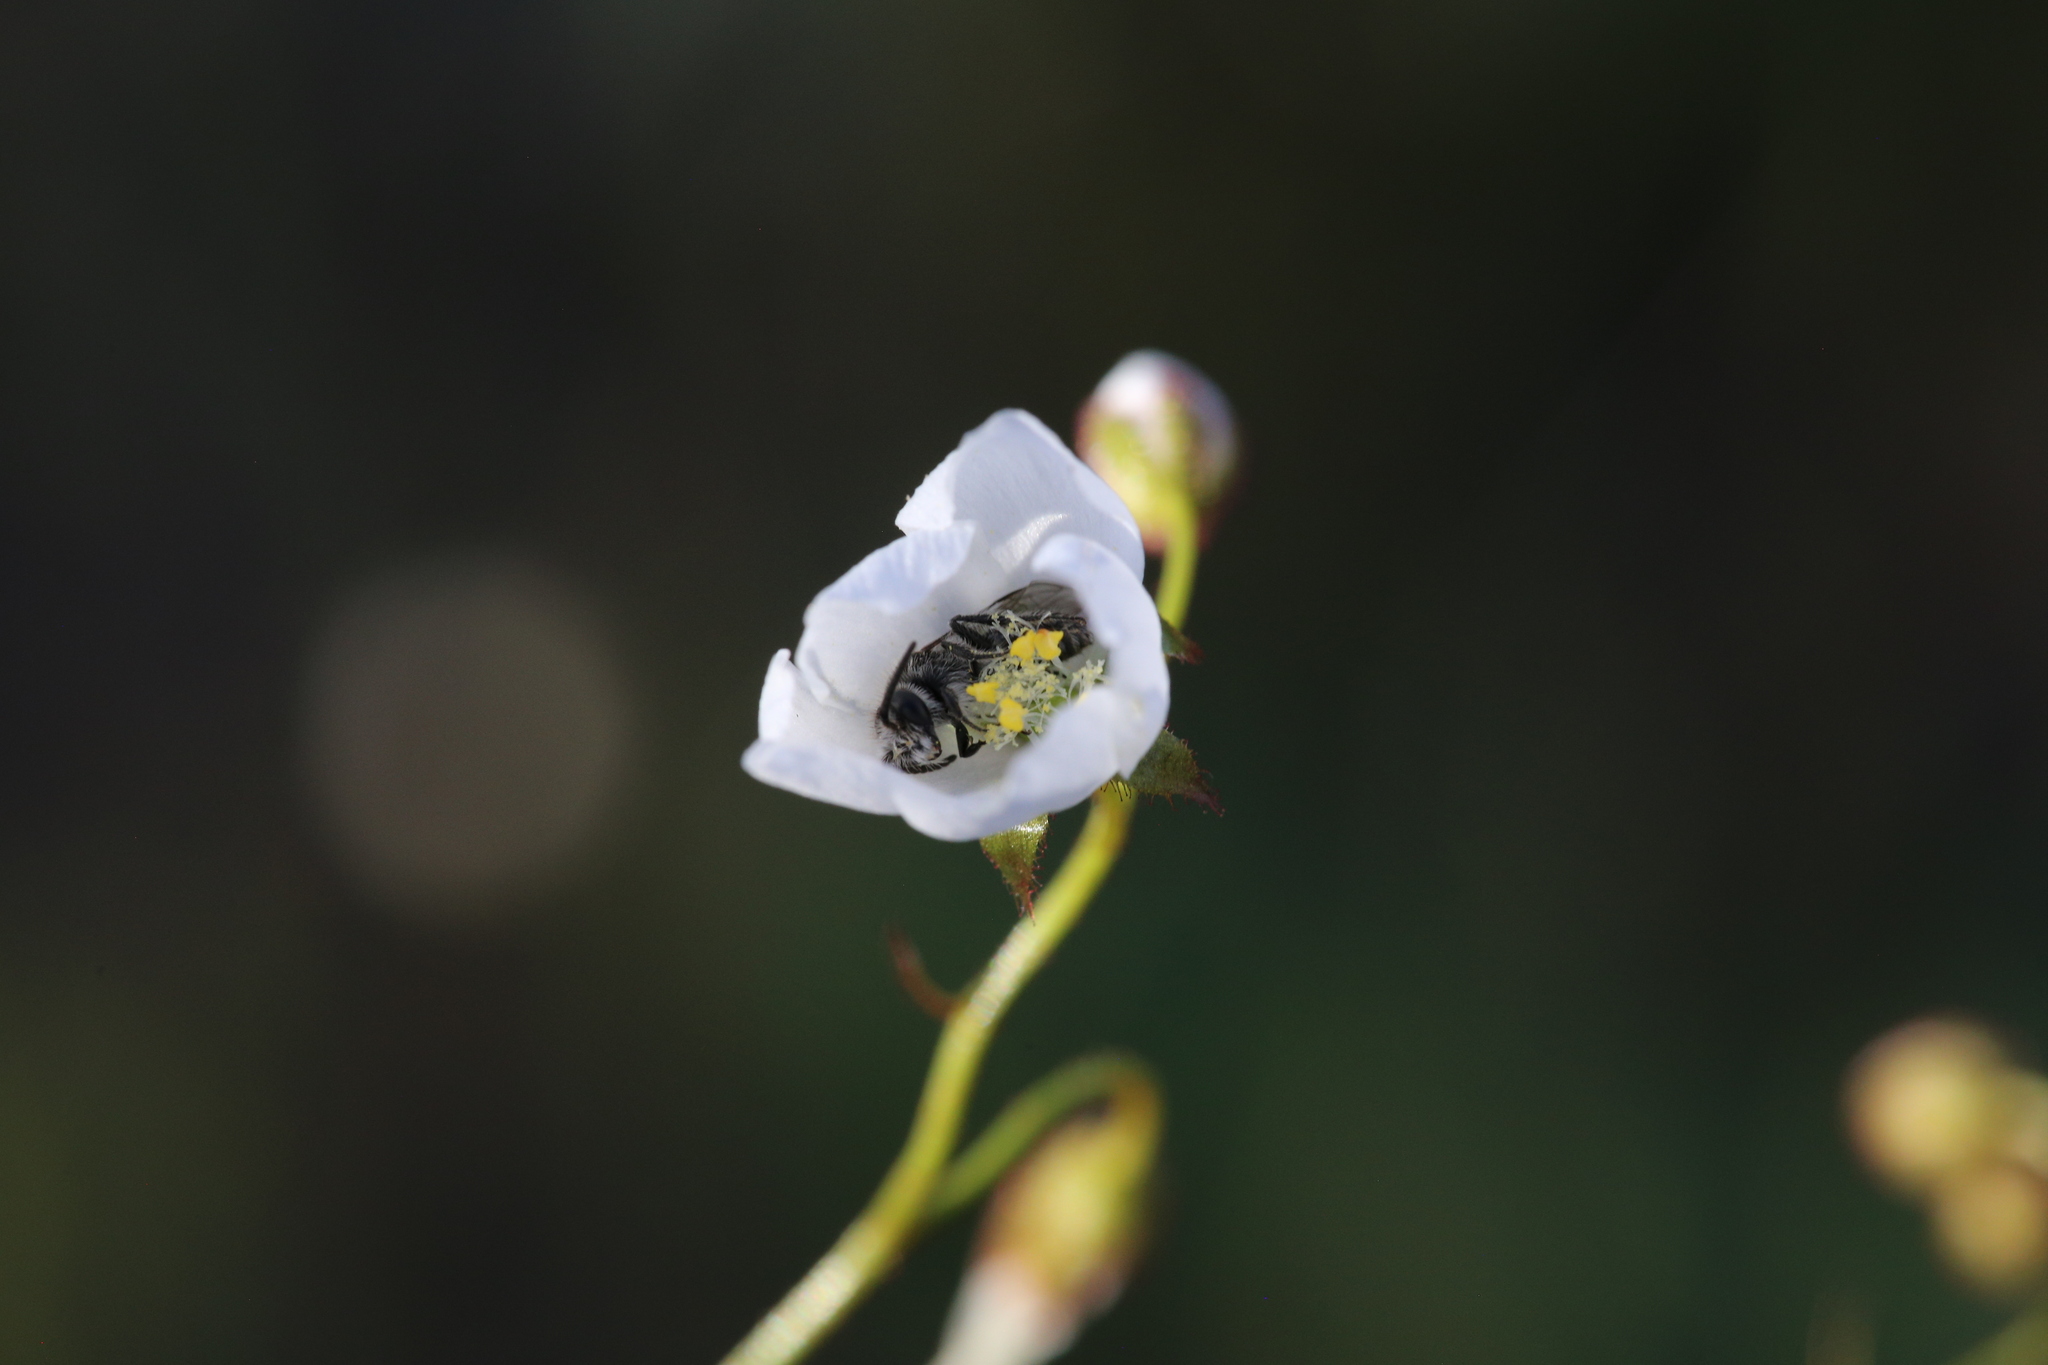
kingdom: Plantae
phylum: Tracheophyta
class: Magnoliopsida
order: Caryophyllales
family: Droseraceae
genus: Drosera
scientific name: Drosera andersoniana
